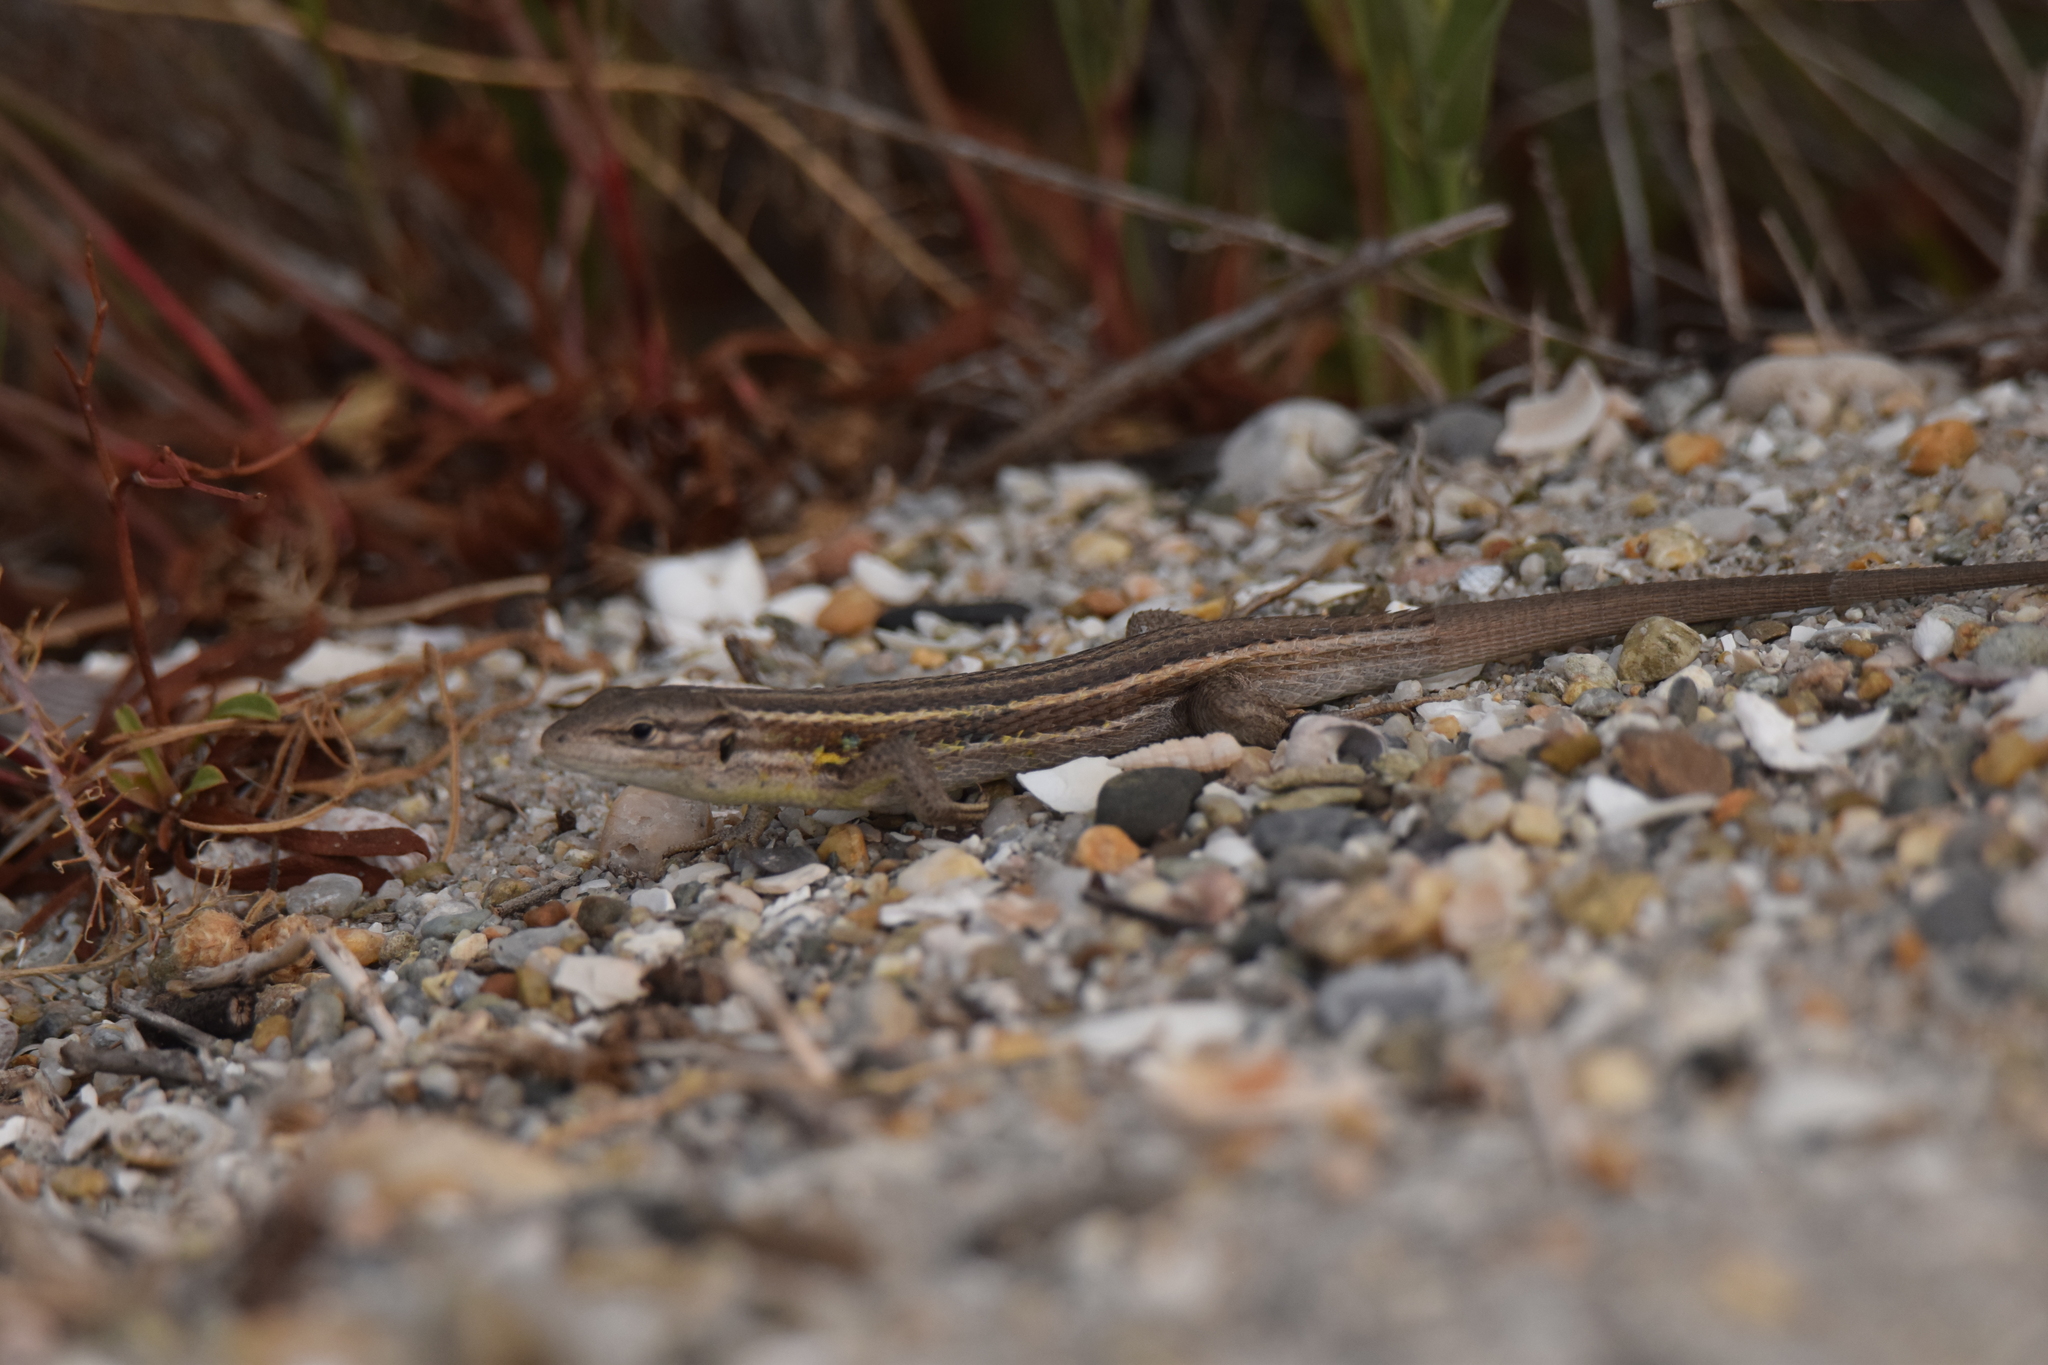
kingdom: Animalia
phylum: Chordata
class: Squamata
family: Lacertidae
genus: Psammodromus
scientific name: Psammodromus algirus
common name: Algerian psammodromus
